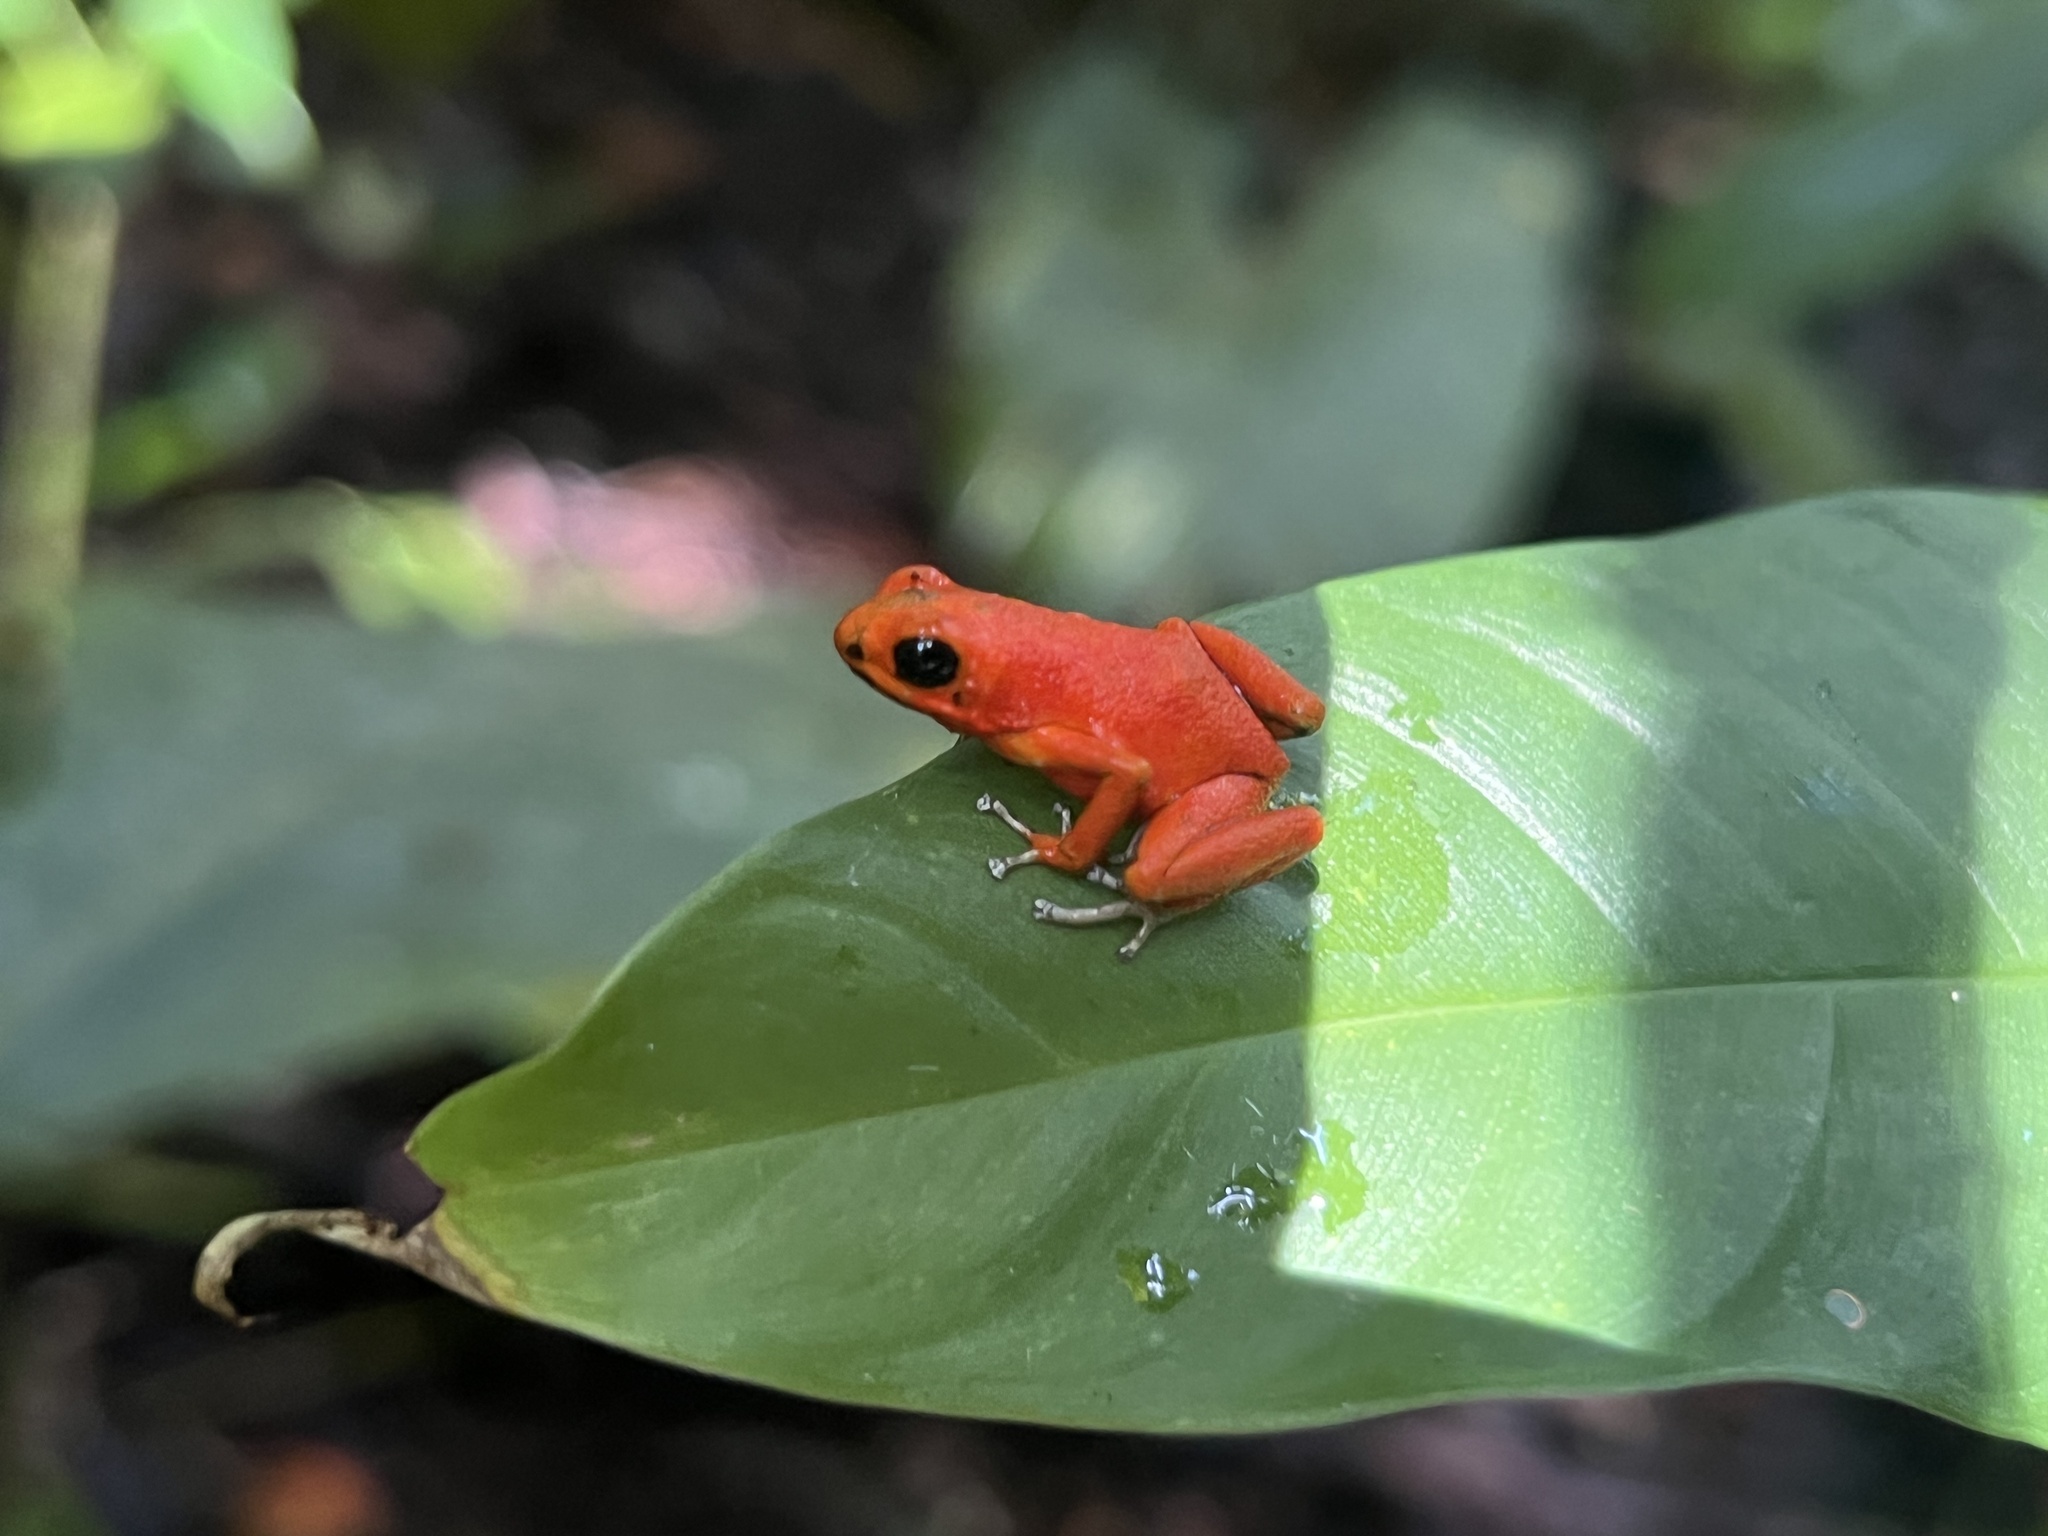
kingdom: Animalia
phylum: Chordata
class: Amphibia
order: Anura
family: Dendrobatidae
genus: Oophaga
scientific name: Oophaga pumilio
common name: Flaming poison frog
